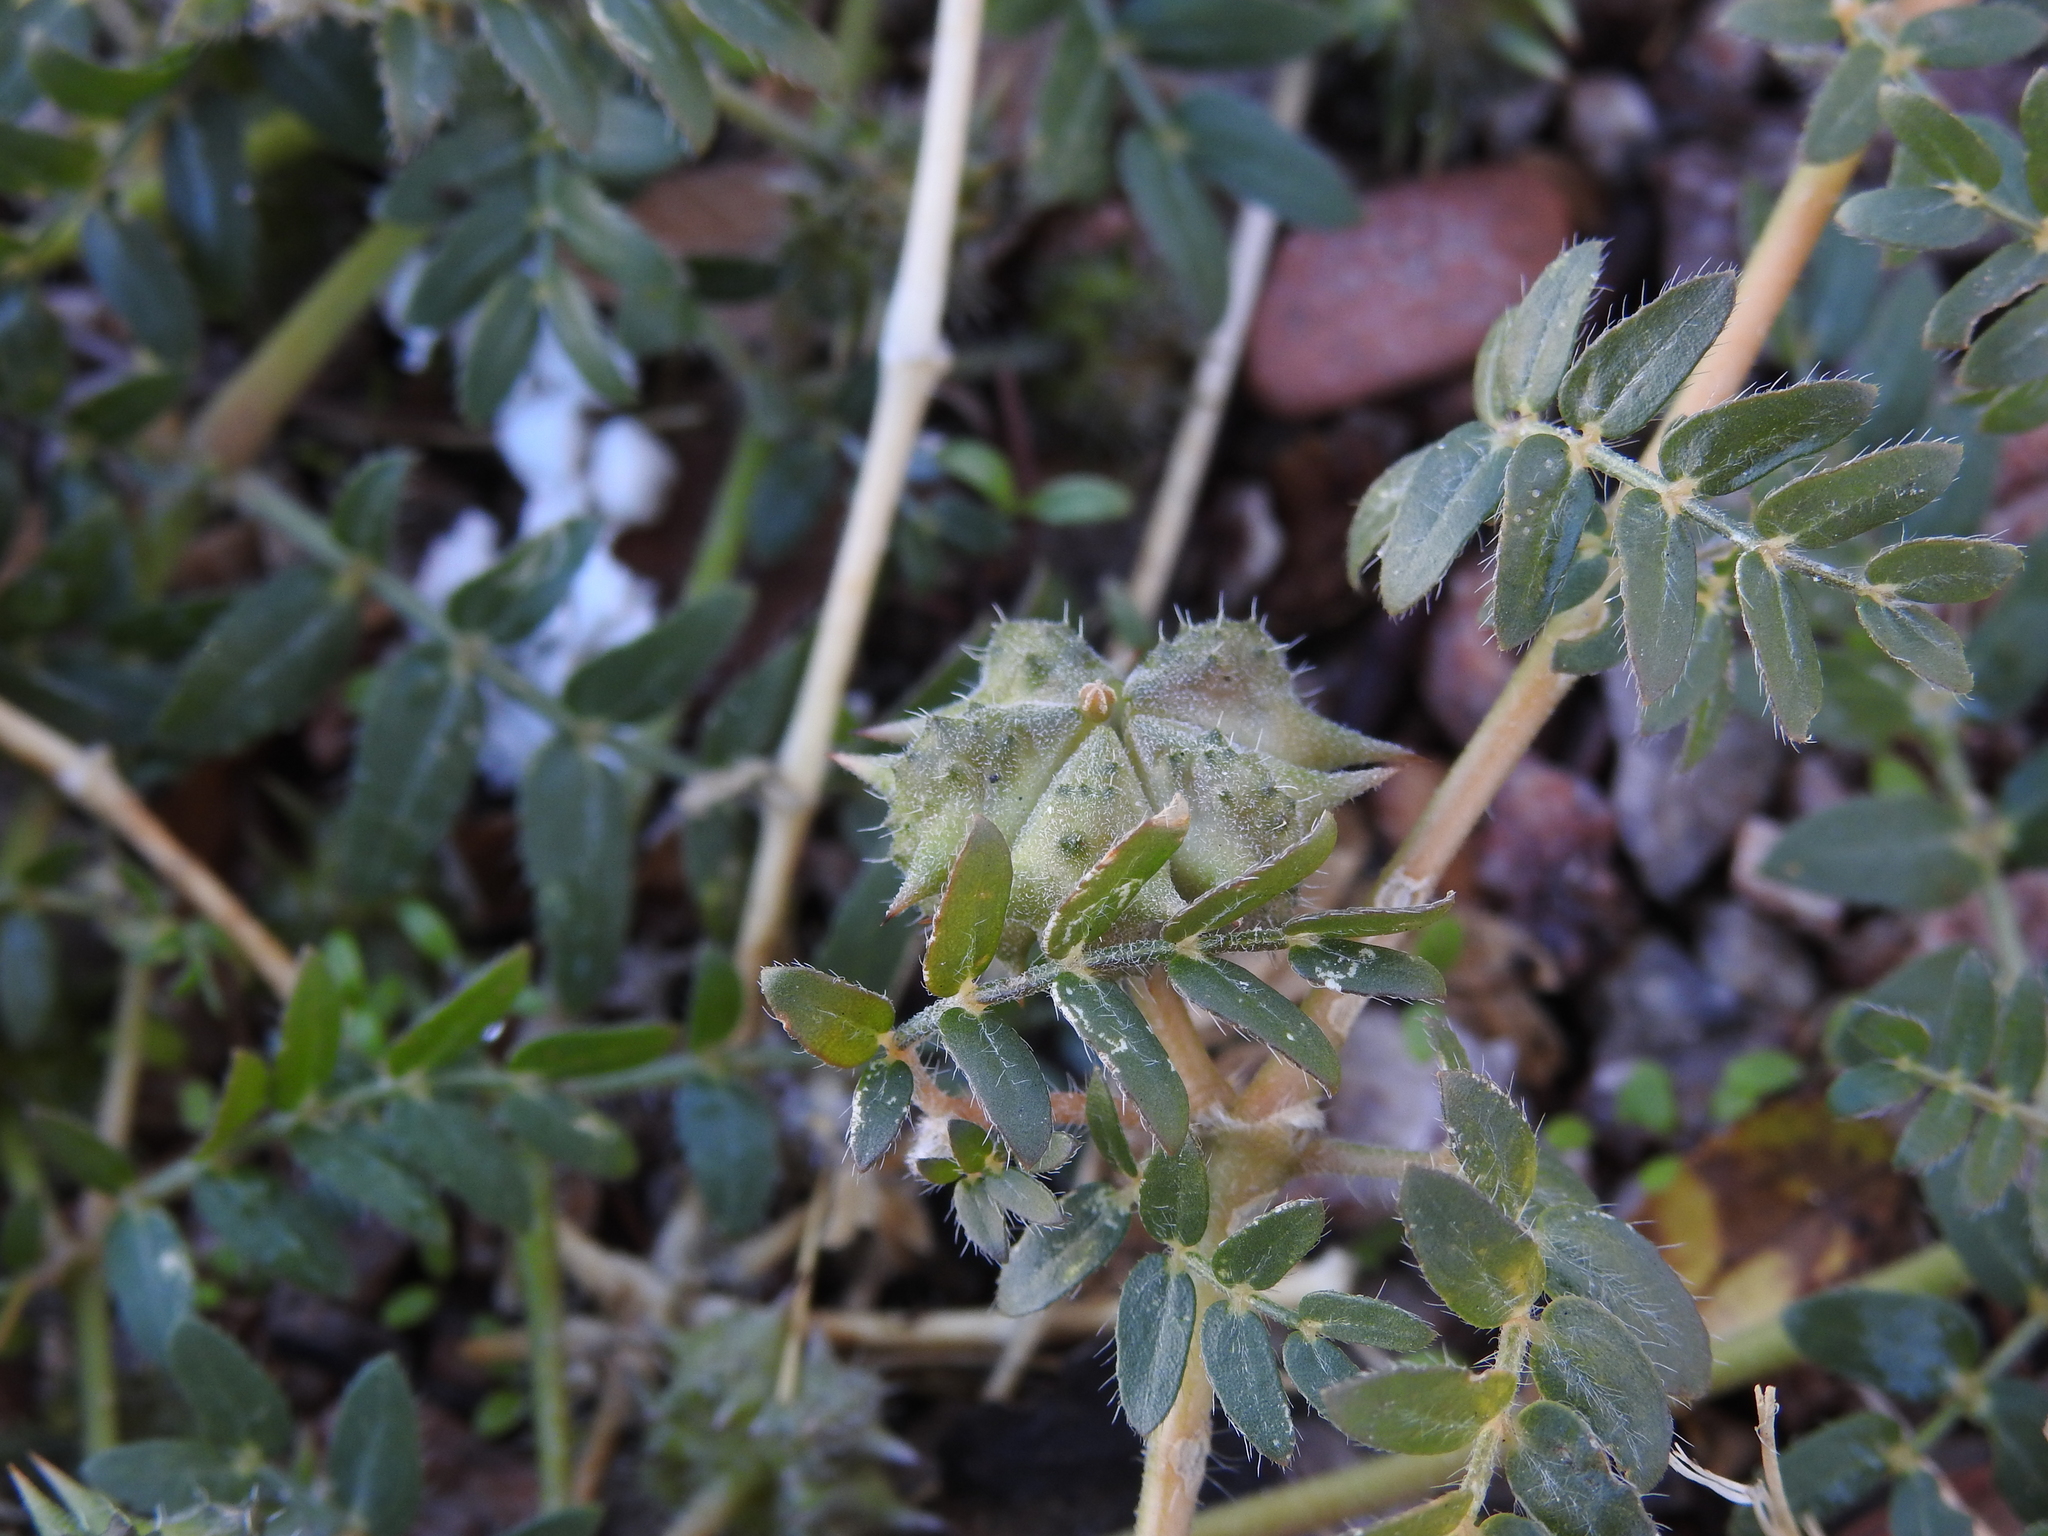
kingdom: Plantae
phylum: Tracheophyta
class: Magnoliopsida
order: Zygophyllales
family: Zygophyllaceae
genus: Tribulus
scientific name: Tribulus terrestris
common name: Puncturevine
